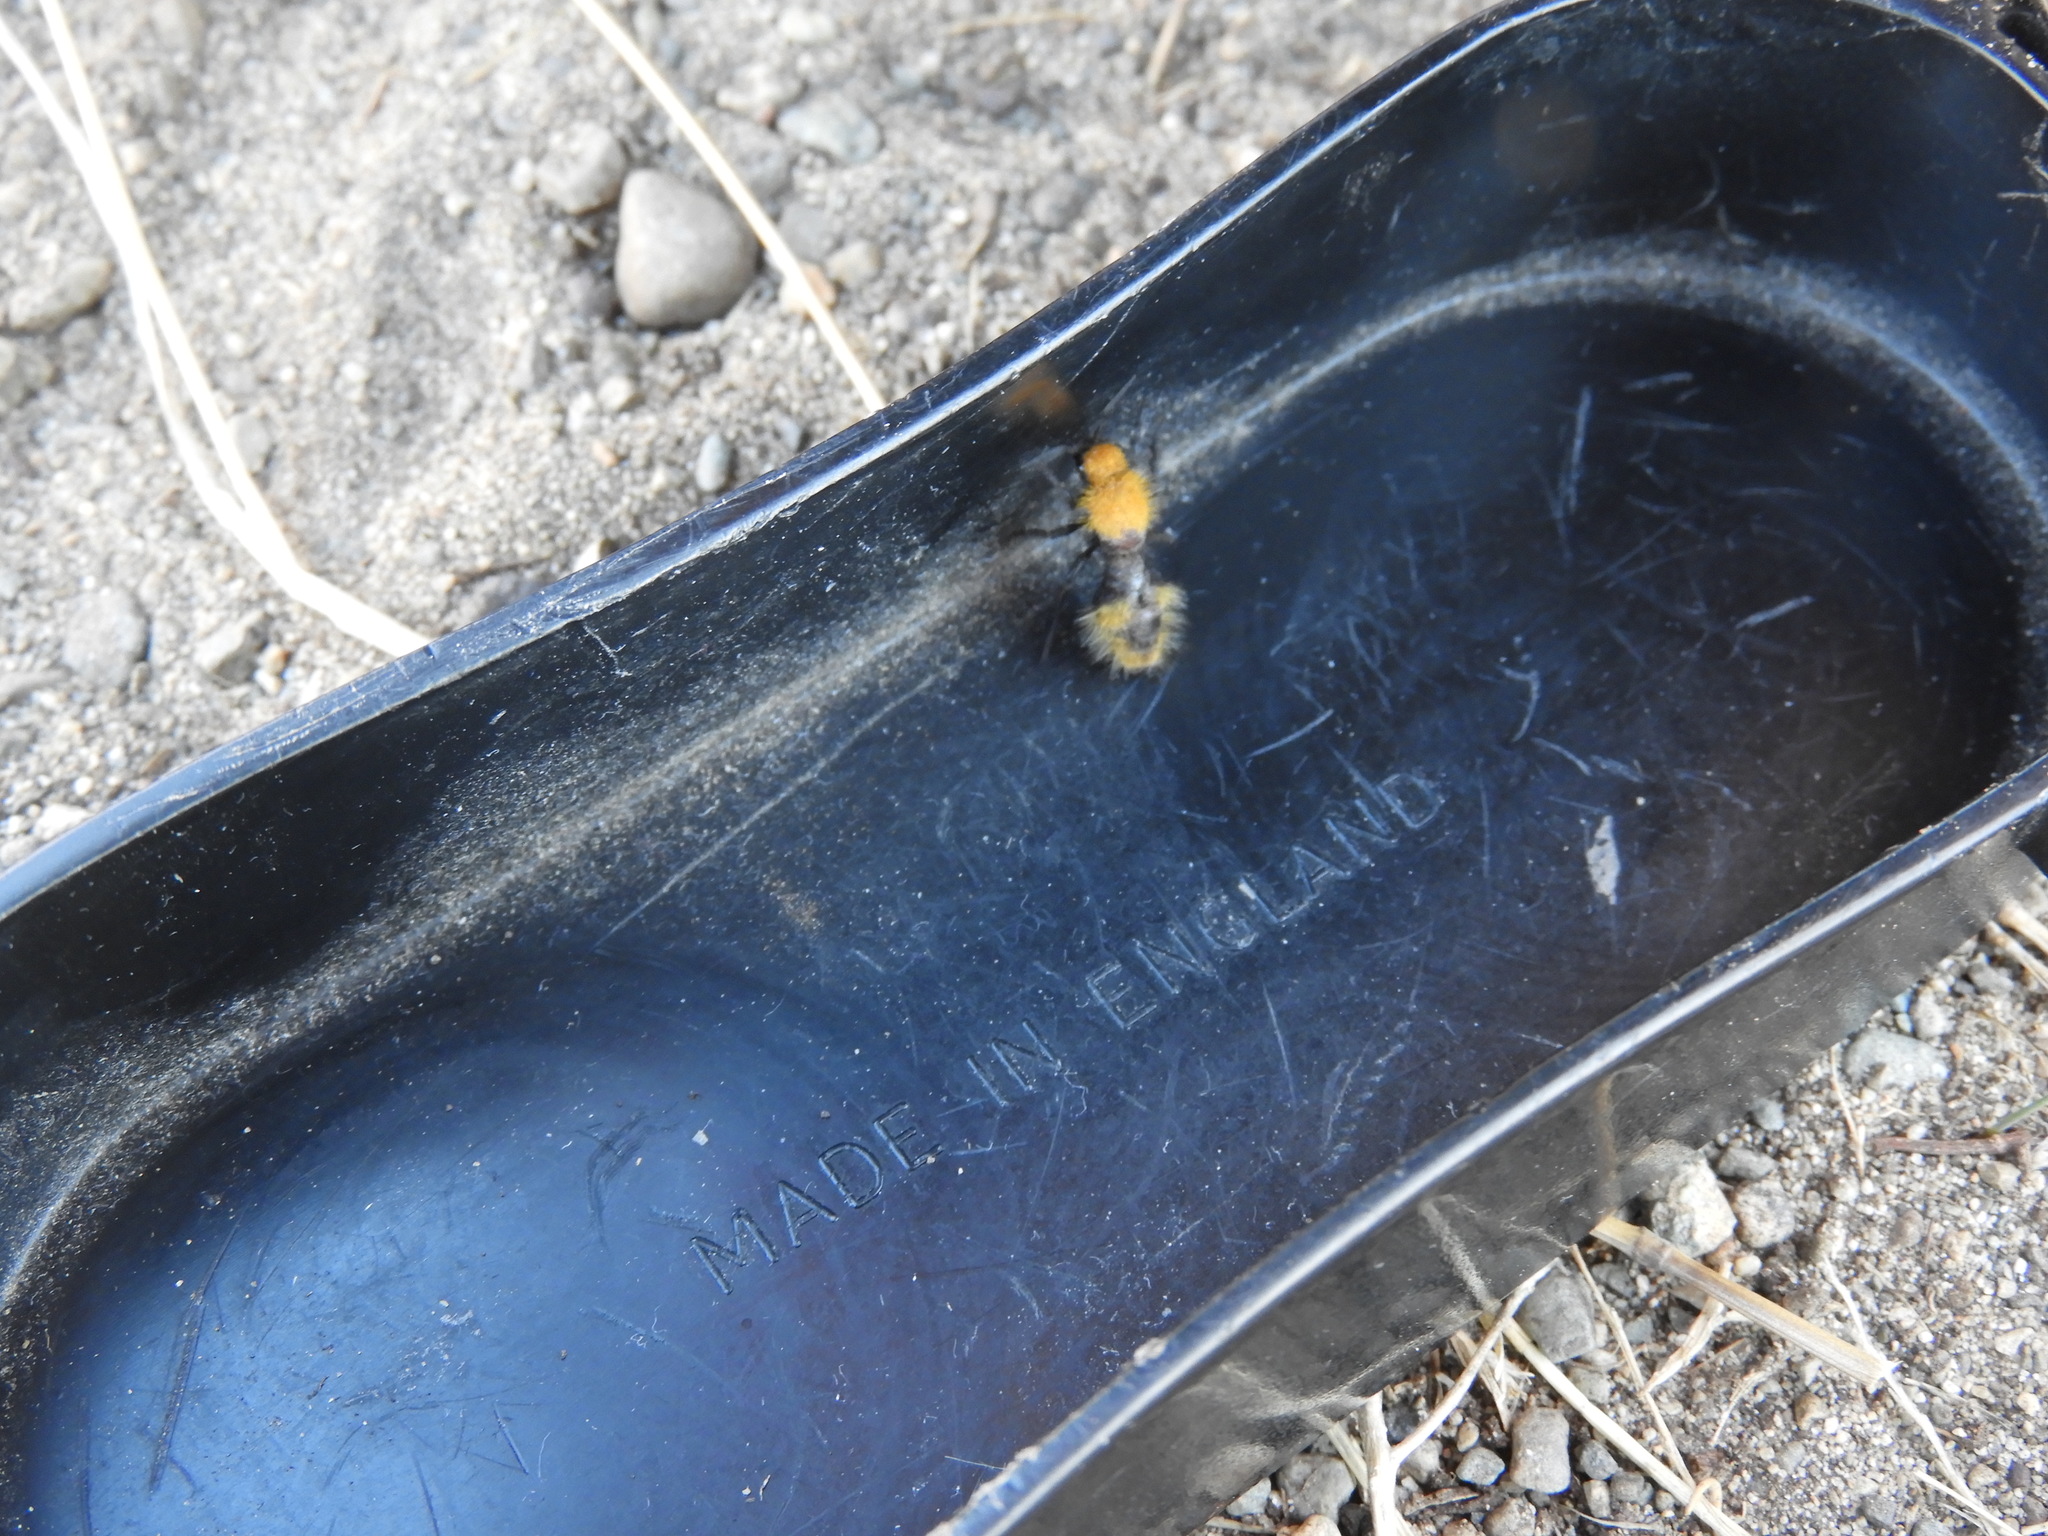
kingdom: Animalia
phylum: Arthropoda
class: Insecta
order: Hymenoptera
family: Mutillidae
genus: Dasymutilla
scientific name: Dasymutilla
